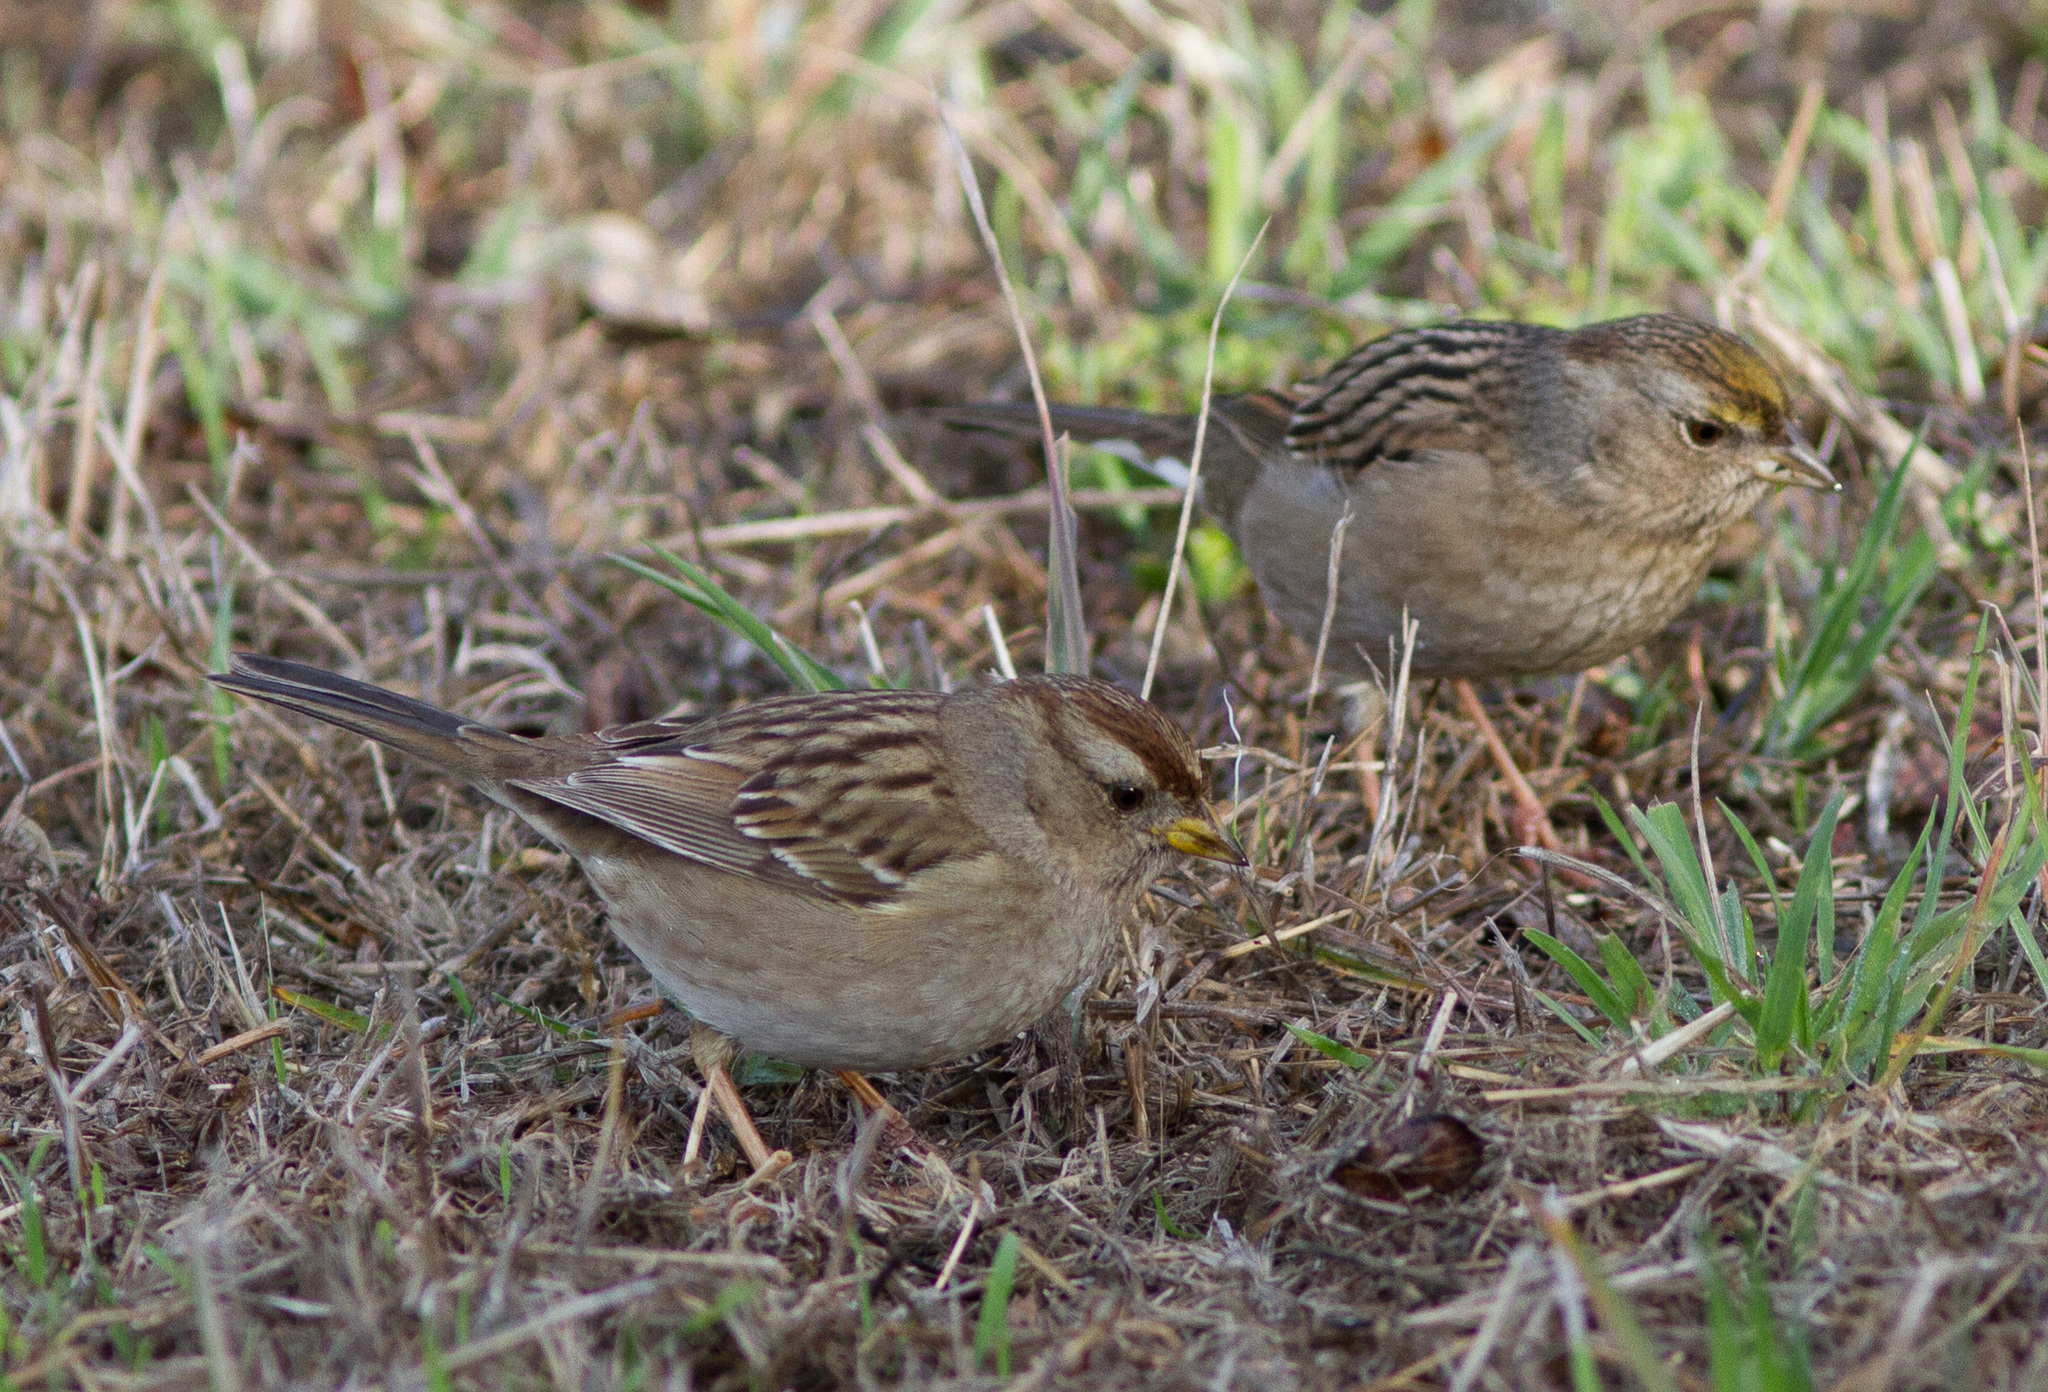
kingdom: Animalia
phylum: Chordata
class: Aves
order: Passeriformes
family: Passerellidae
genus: Zonotrichia
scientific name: Zonotrichia leucophrys
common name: White-crowned sparrow
